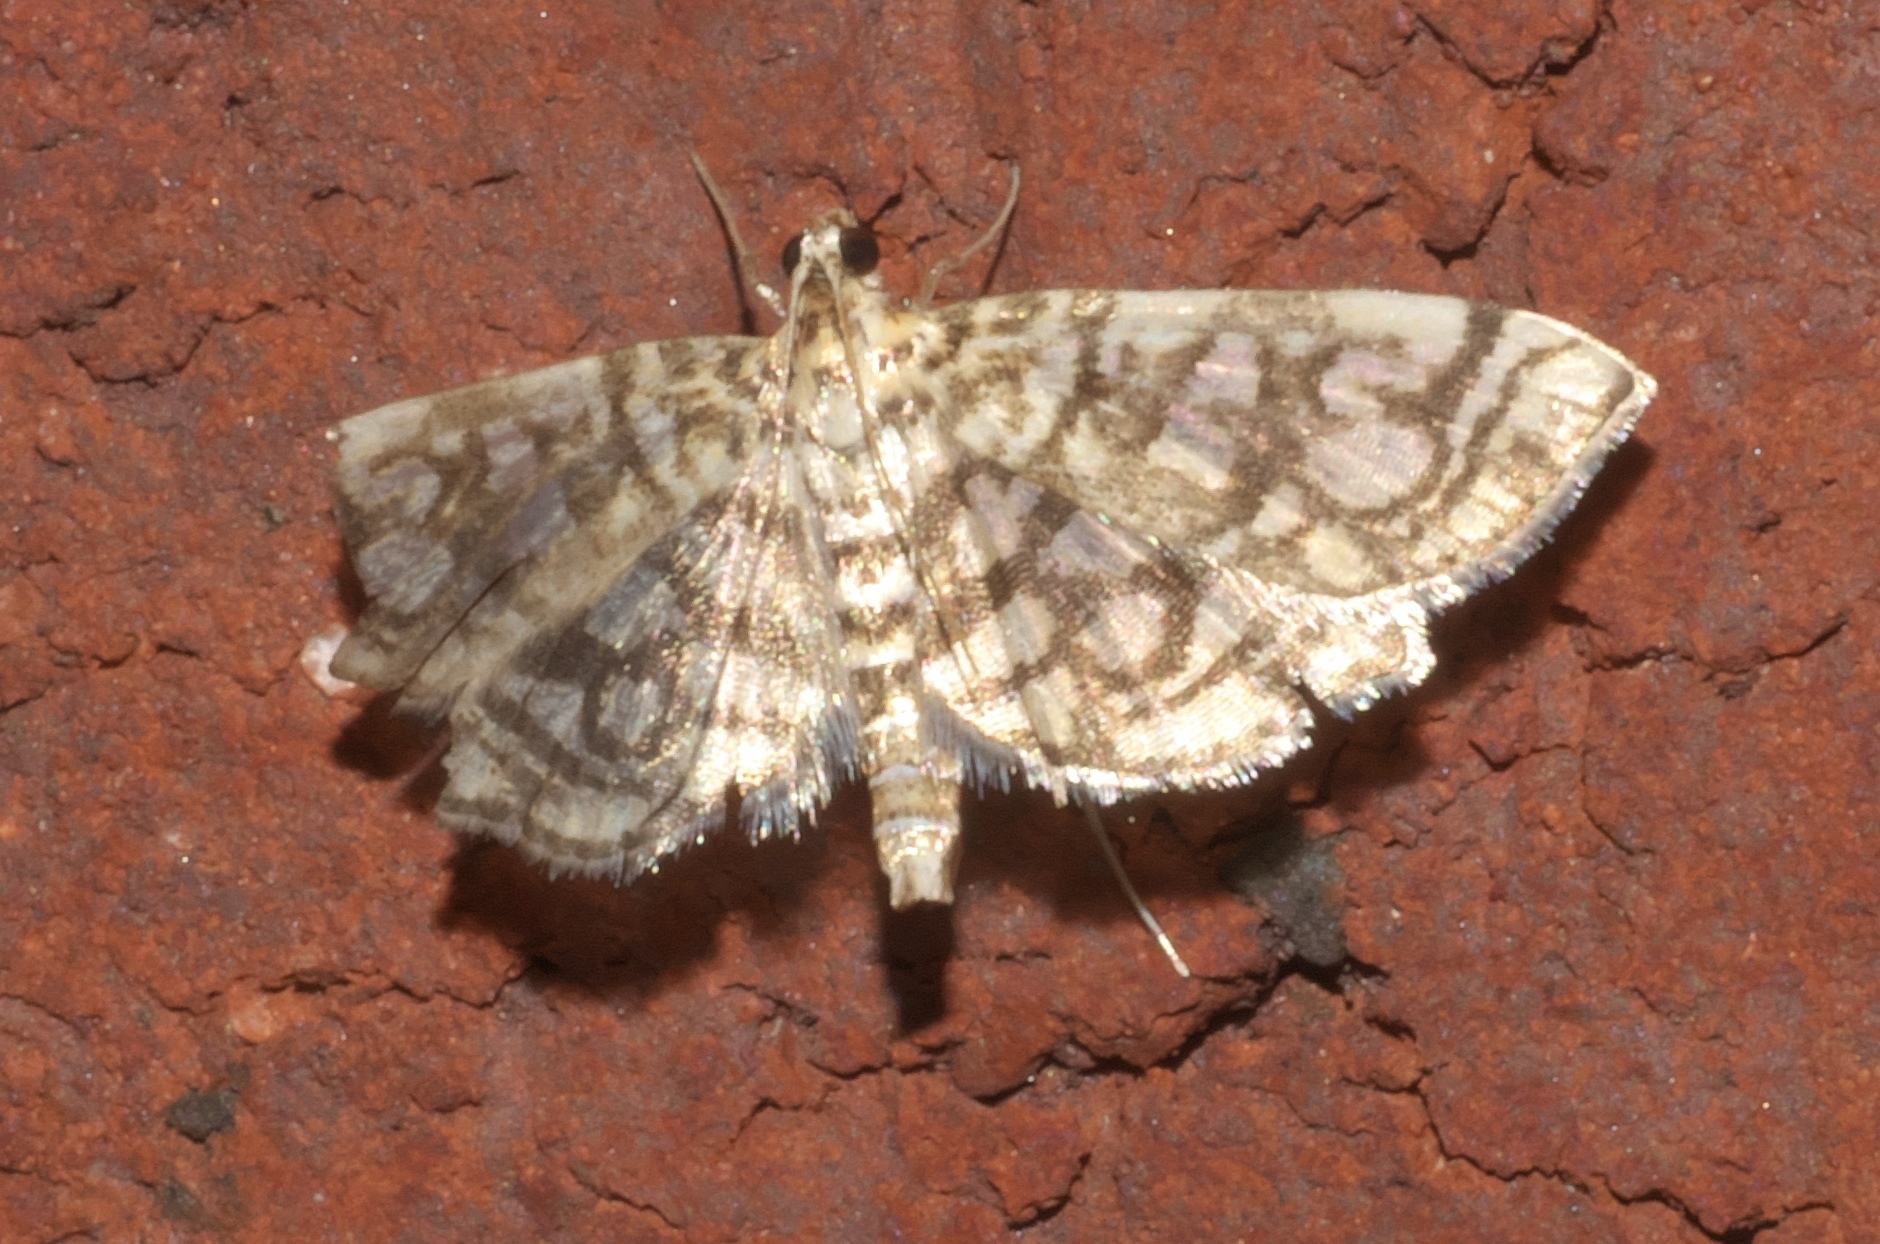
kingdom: Animalia
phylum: Arthropoda
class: Insecta
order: Lepidoptera
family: Crambidae
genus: Lygropia
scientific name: Lygropia rivulalis
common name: Bog lygropia moth
